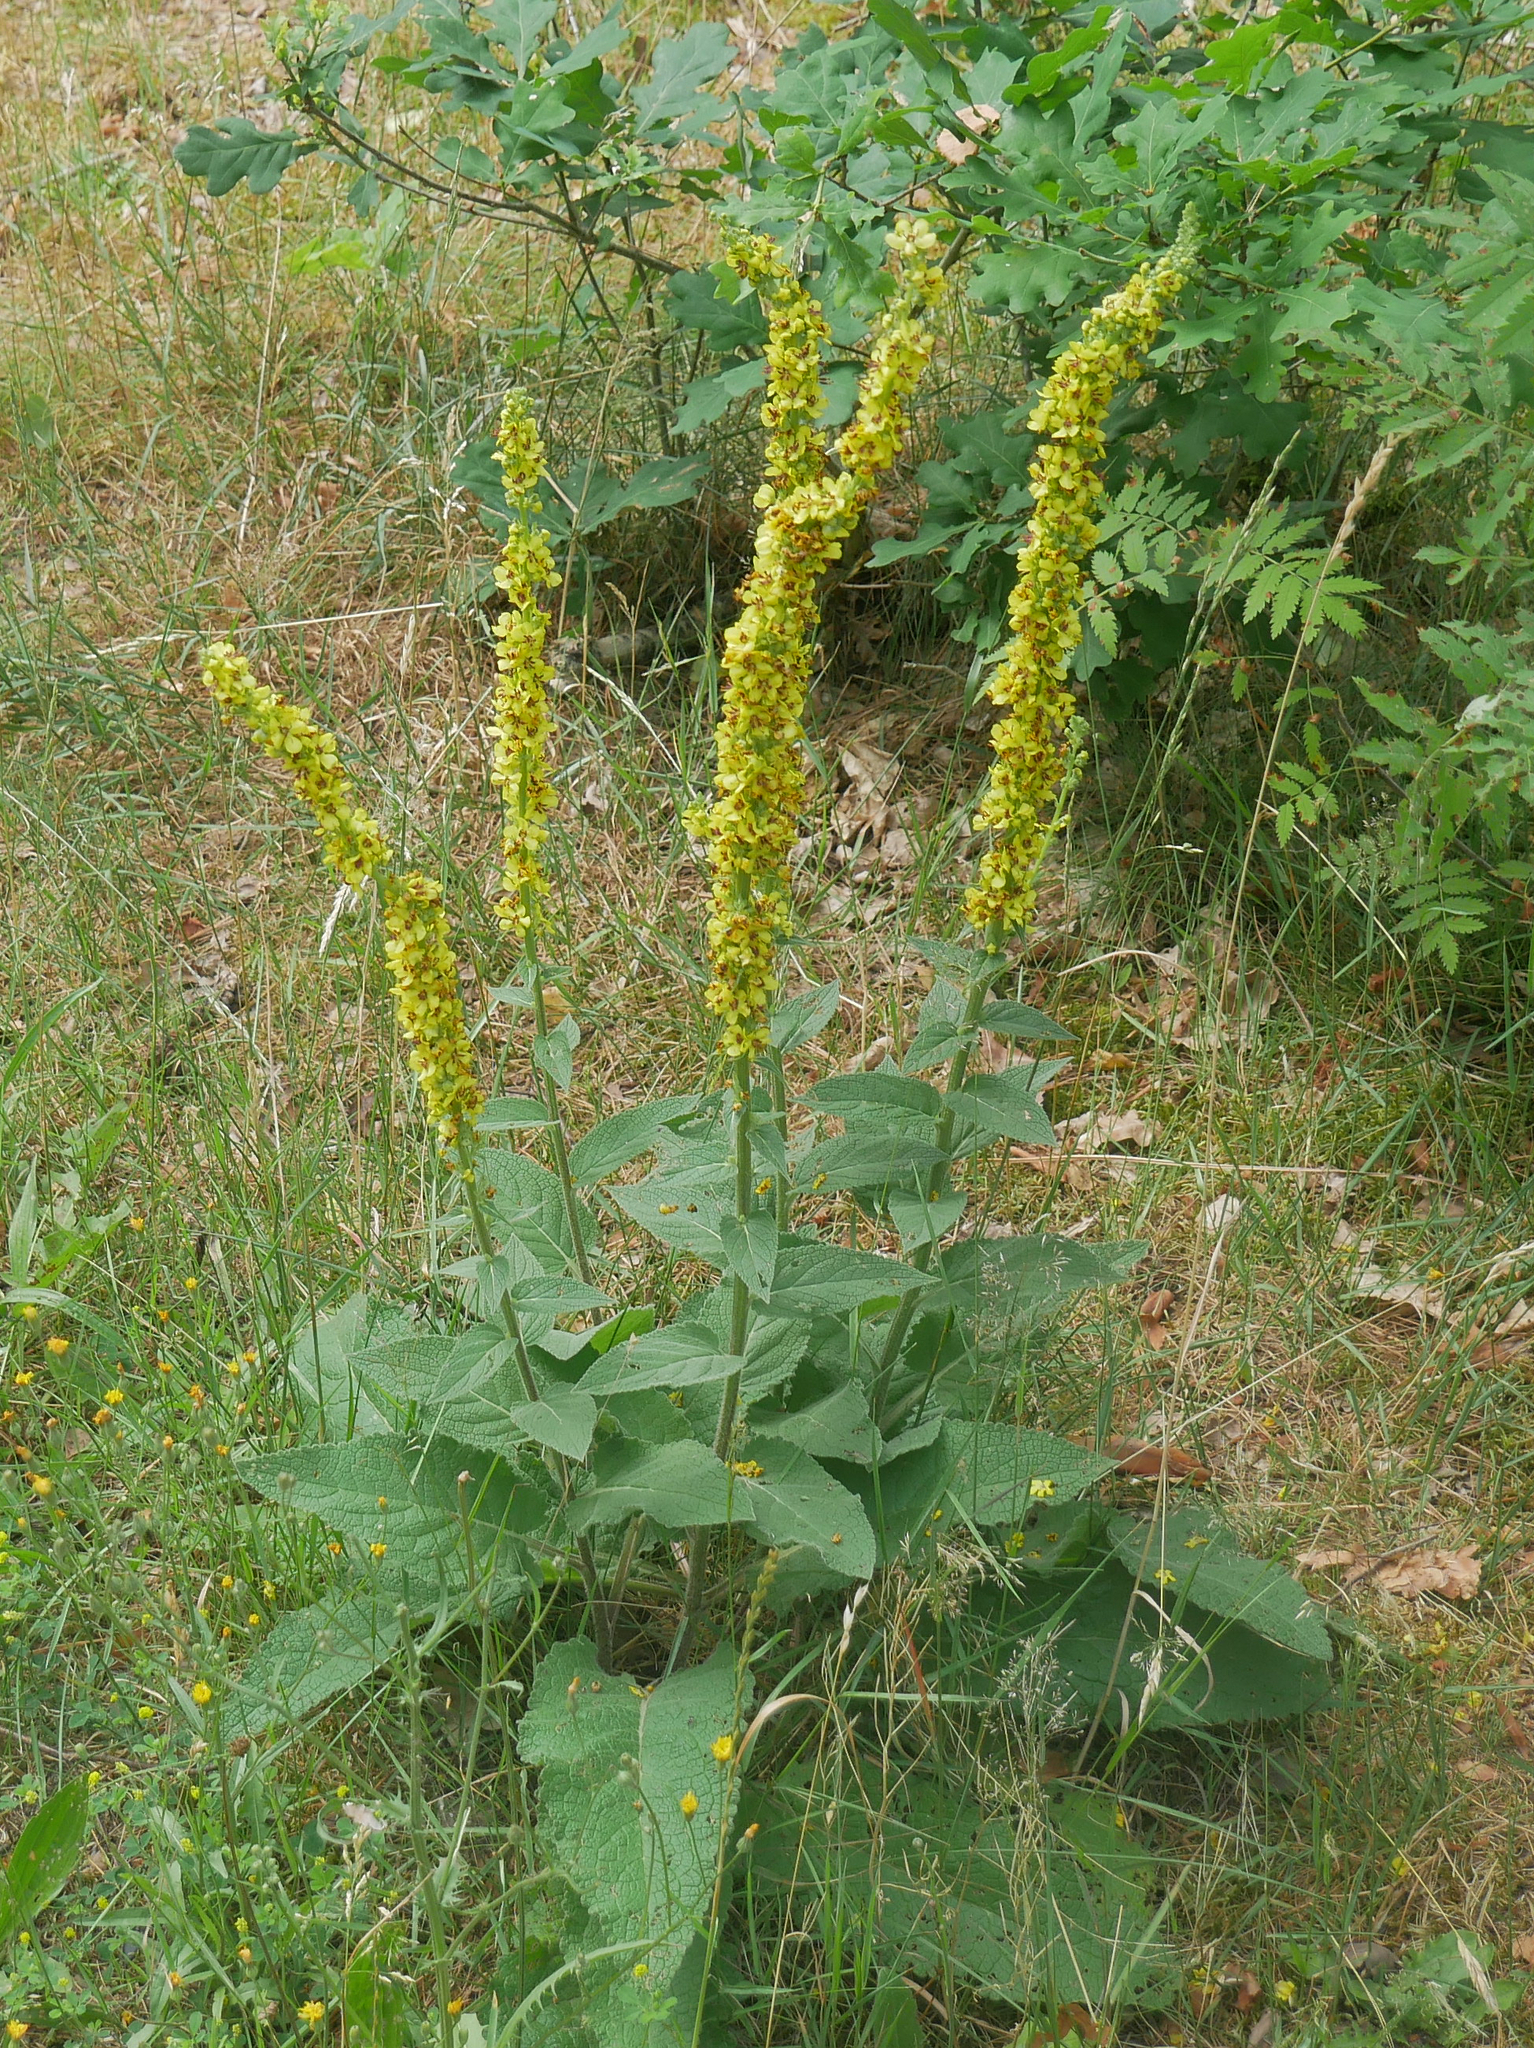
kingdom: Plantae
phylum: Tracheophyta
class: Magnoliopsida
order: Lamiales
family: Scrophulariaceae
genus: Verbascum
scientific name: Verbascum nigrum
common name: Dark mullein
